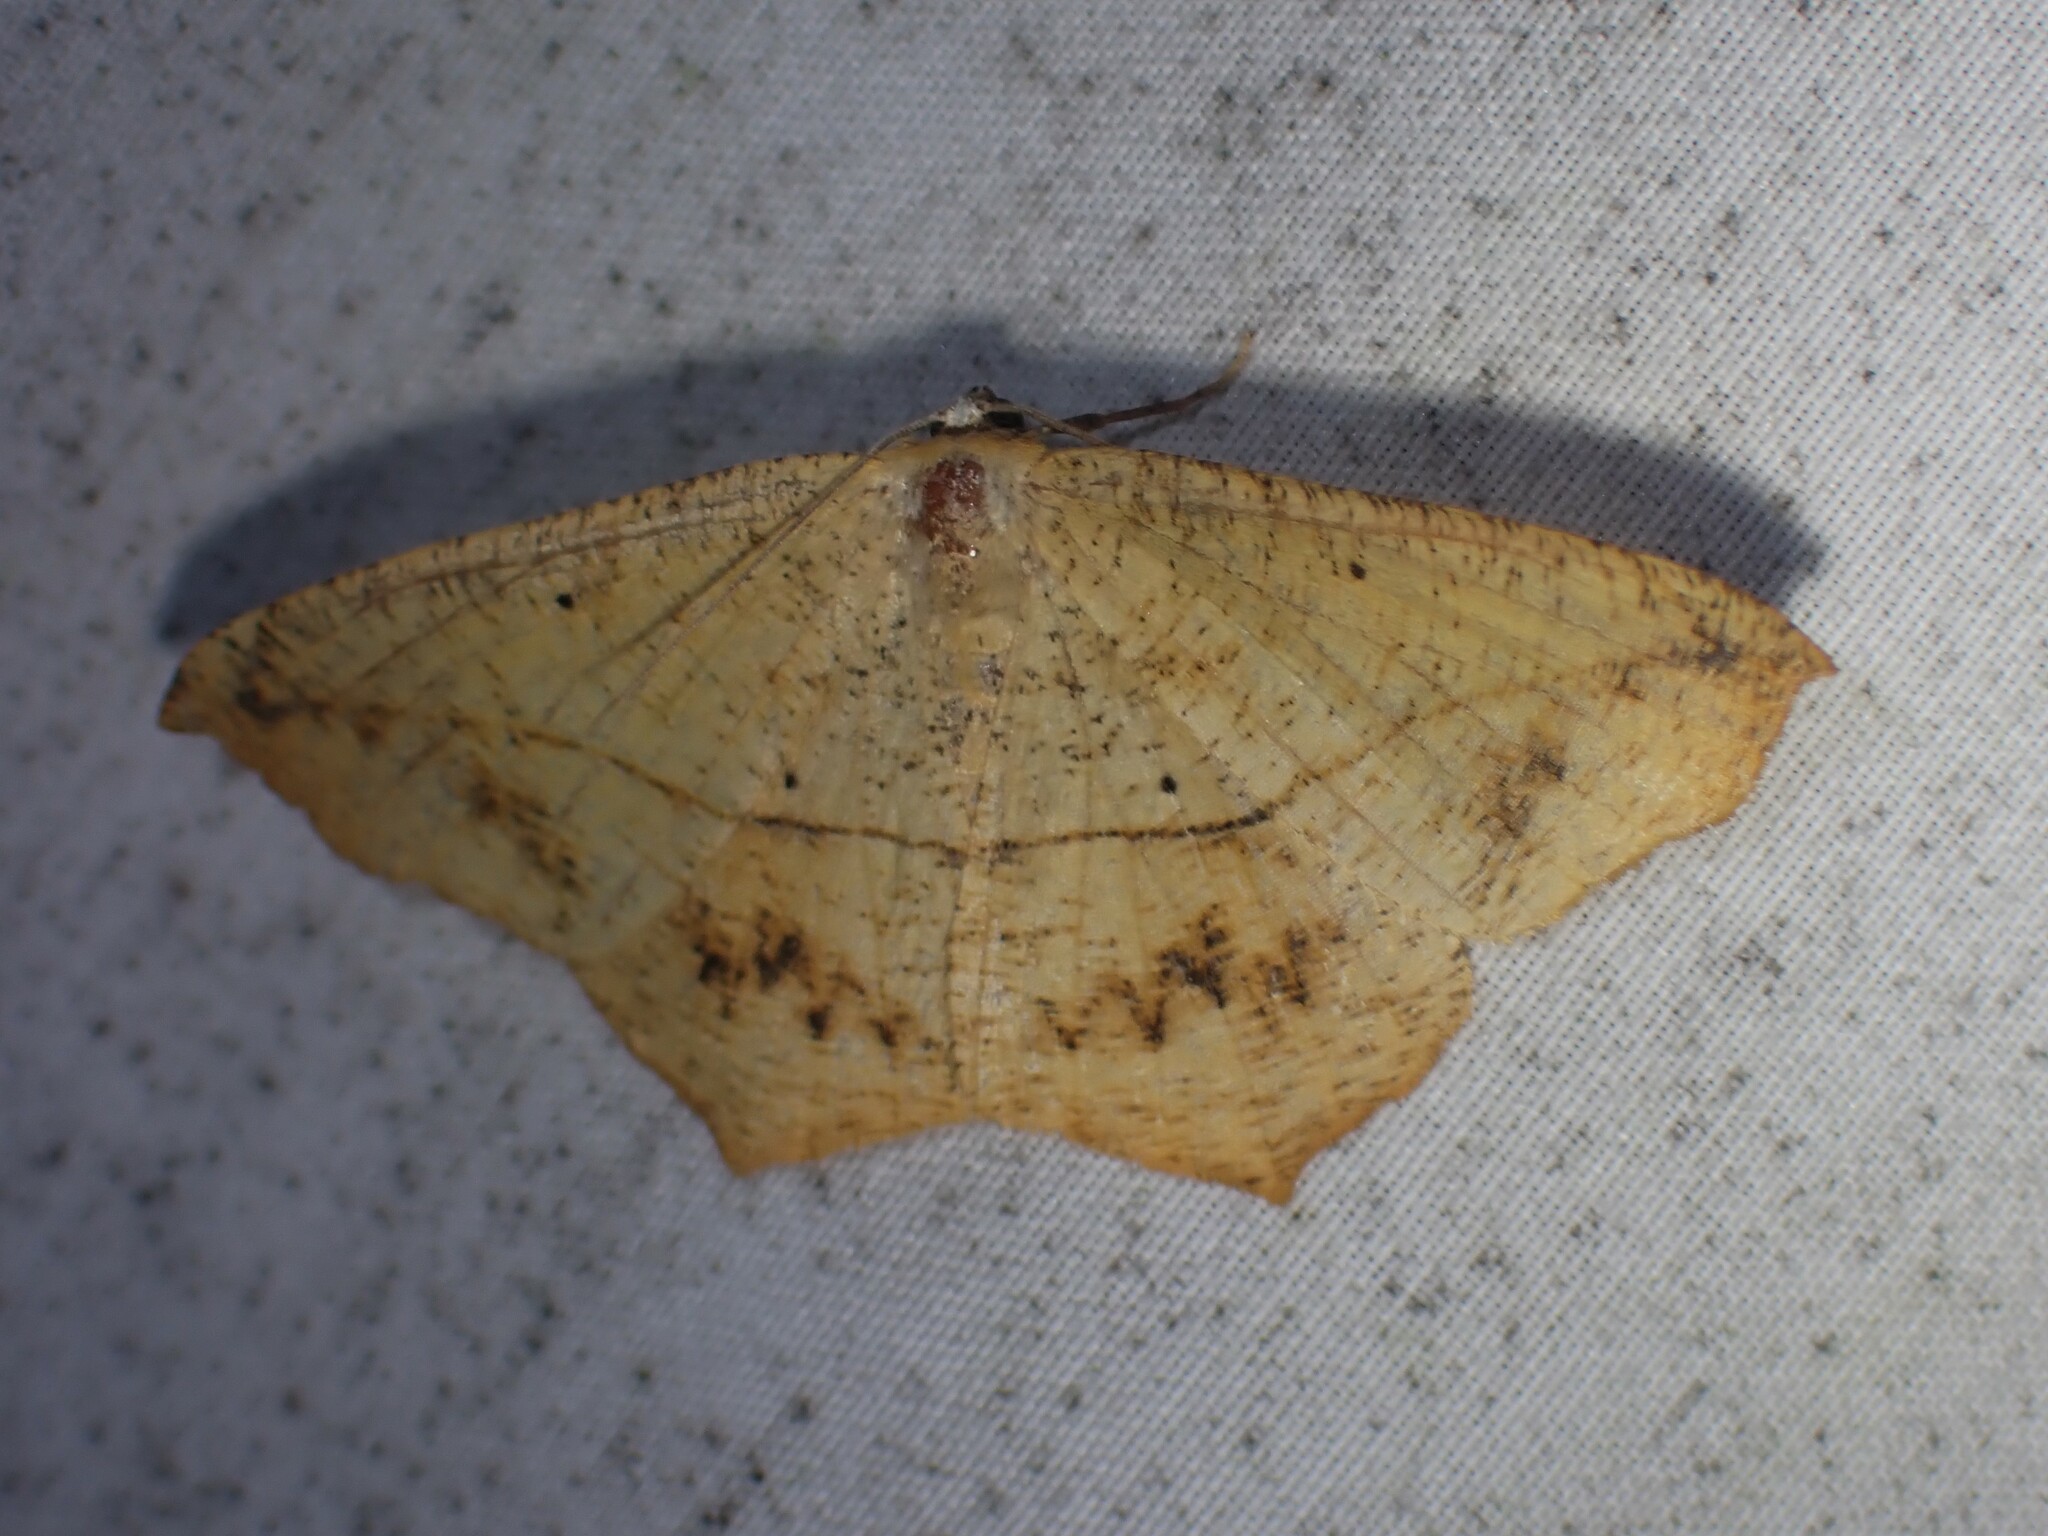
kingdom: Animalia
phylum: Arthropoda
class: Insecta
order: Lepidoptera
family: Geometridae
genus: Prochoerodes
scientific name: Prochoerodes lineola
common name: Large maple spanworm
